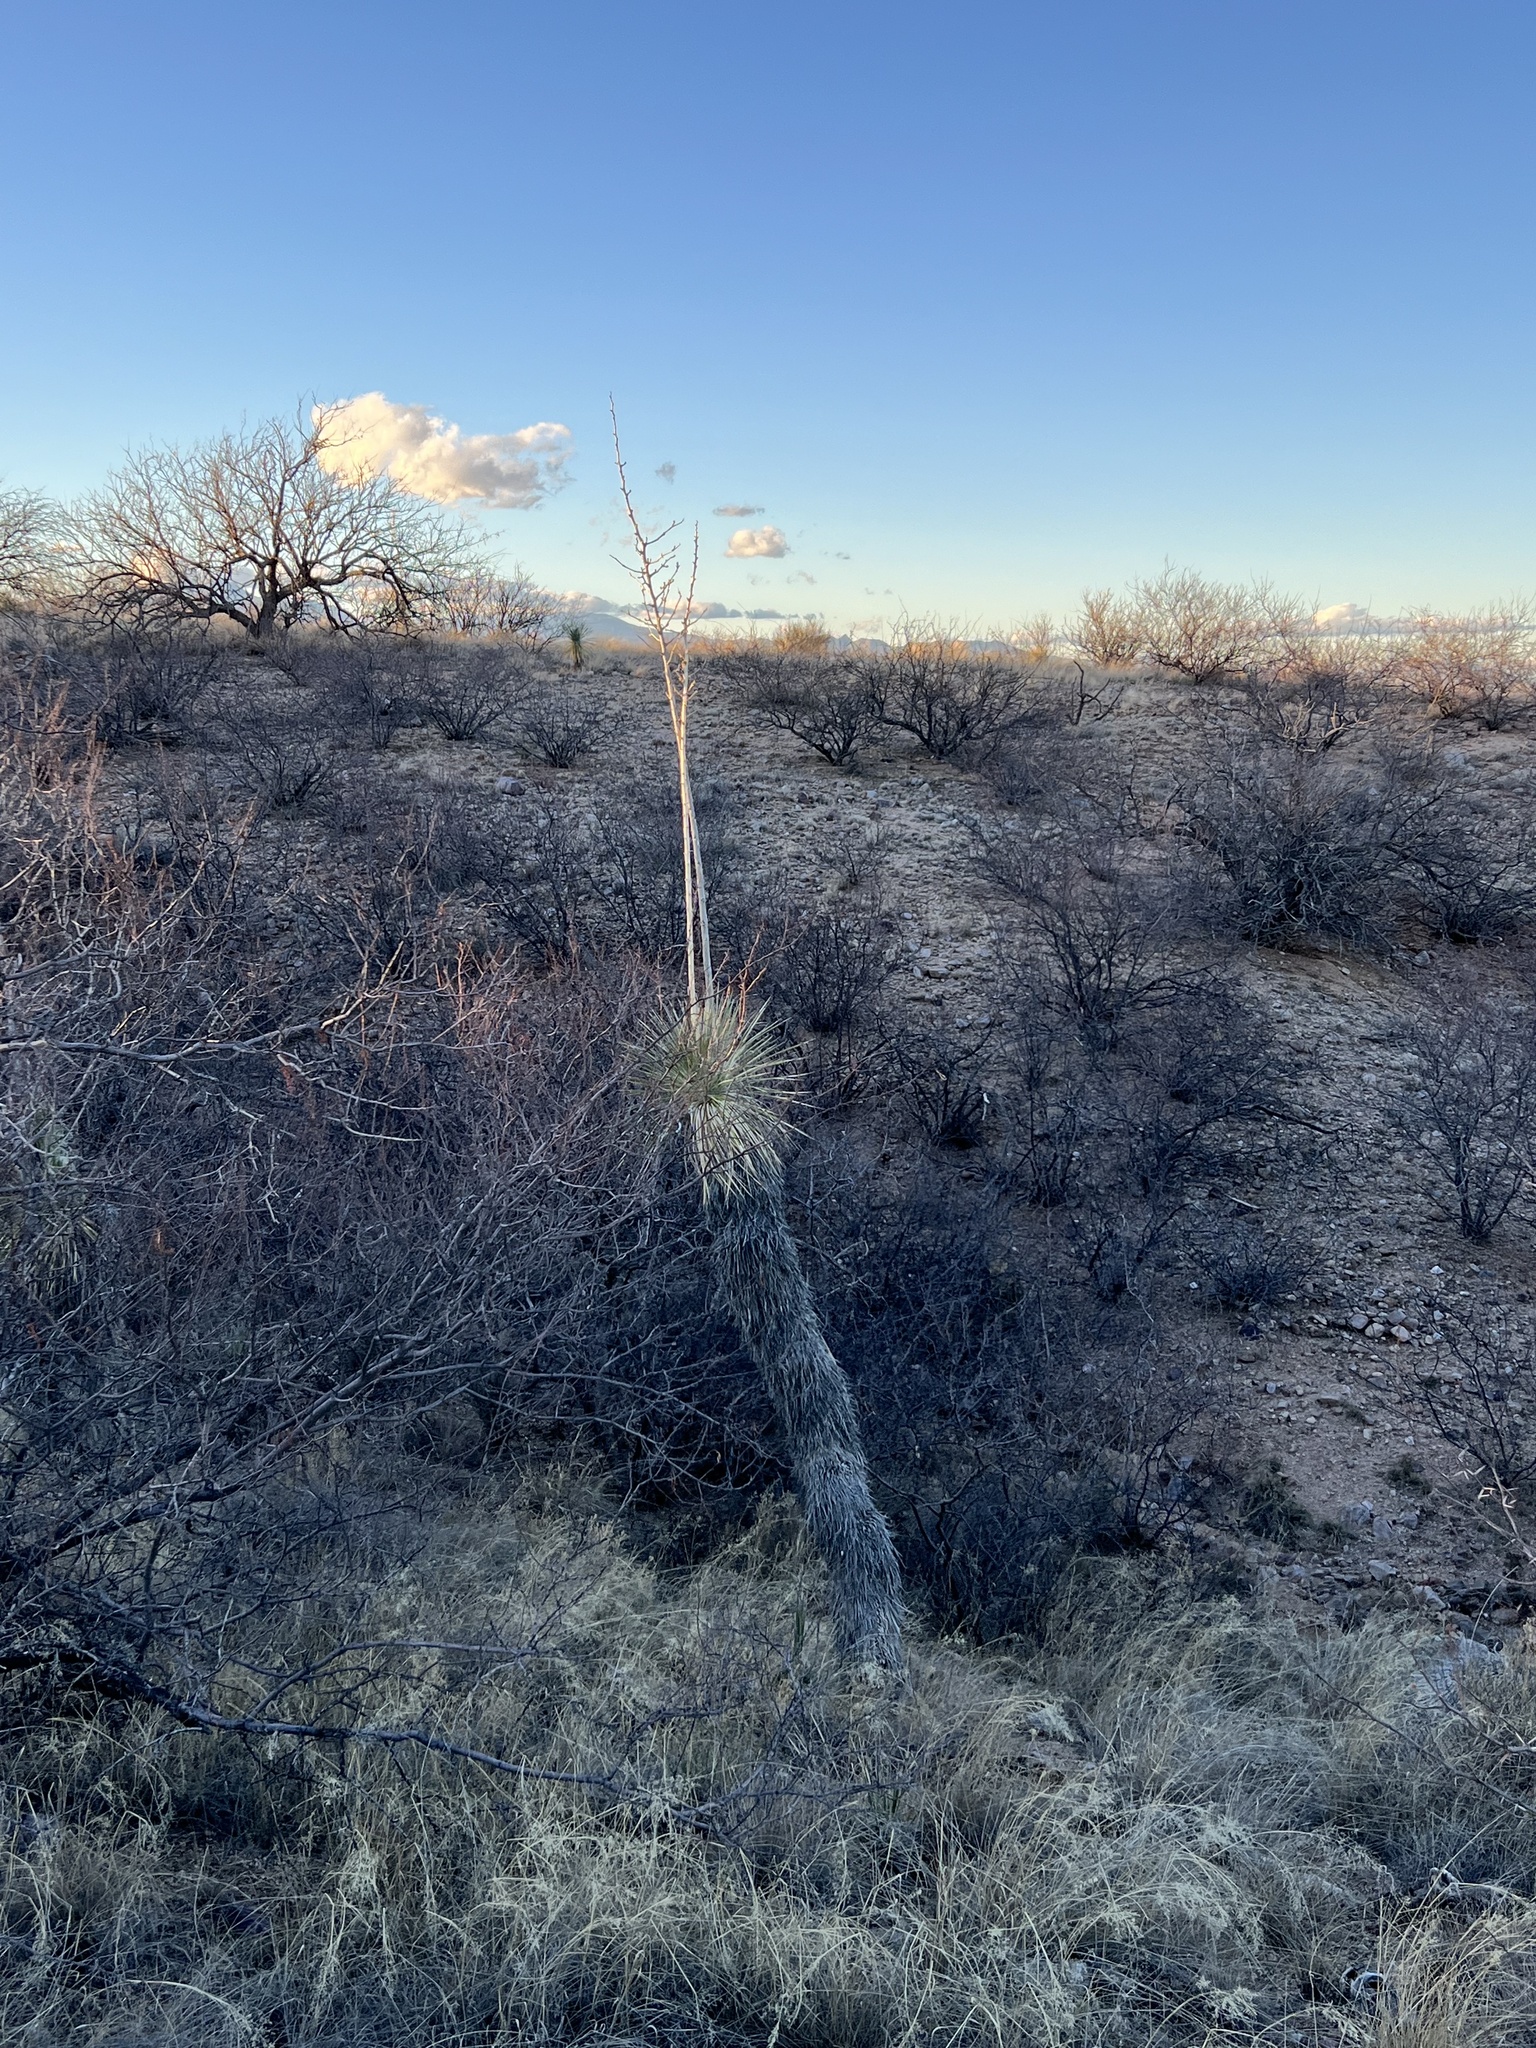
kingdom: Plantae
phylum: Tracheophyta
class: Liliopsida
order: Asparagales
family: Asparagaceae
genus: Yucca
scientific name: Yucca elata
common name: Palmella
